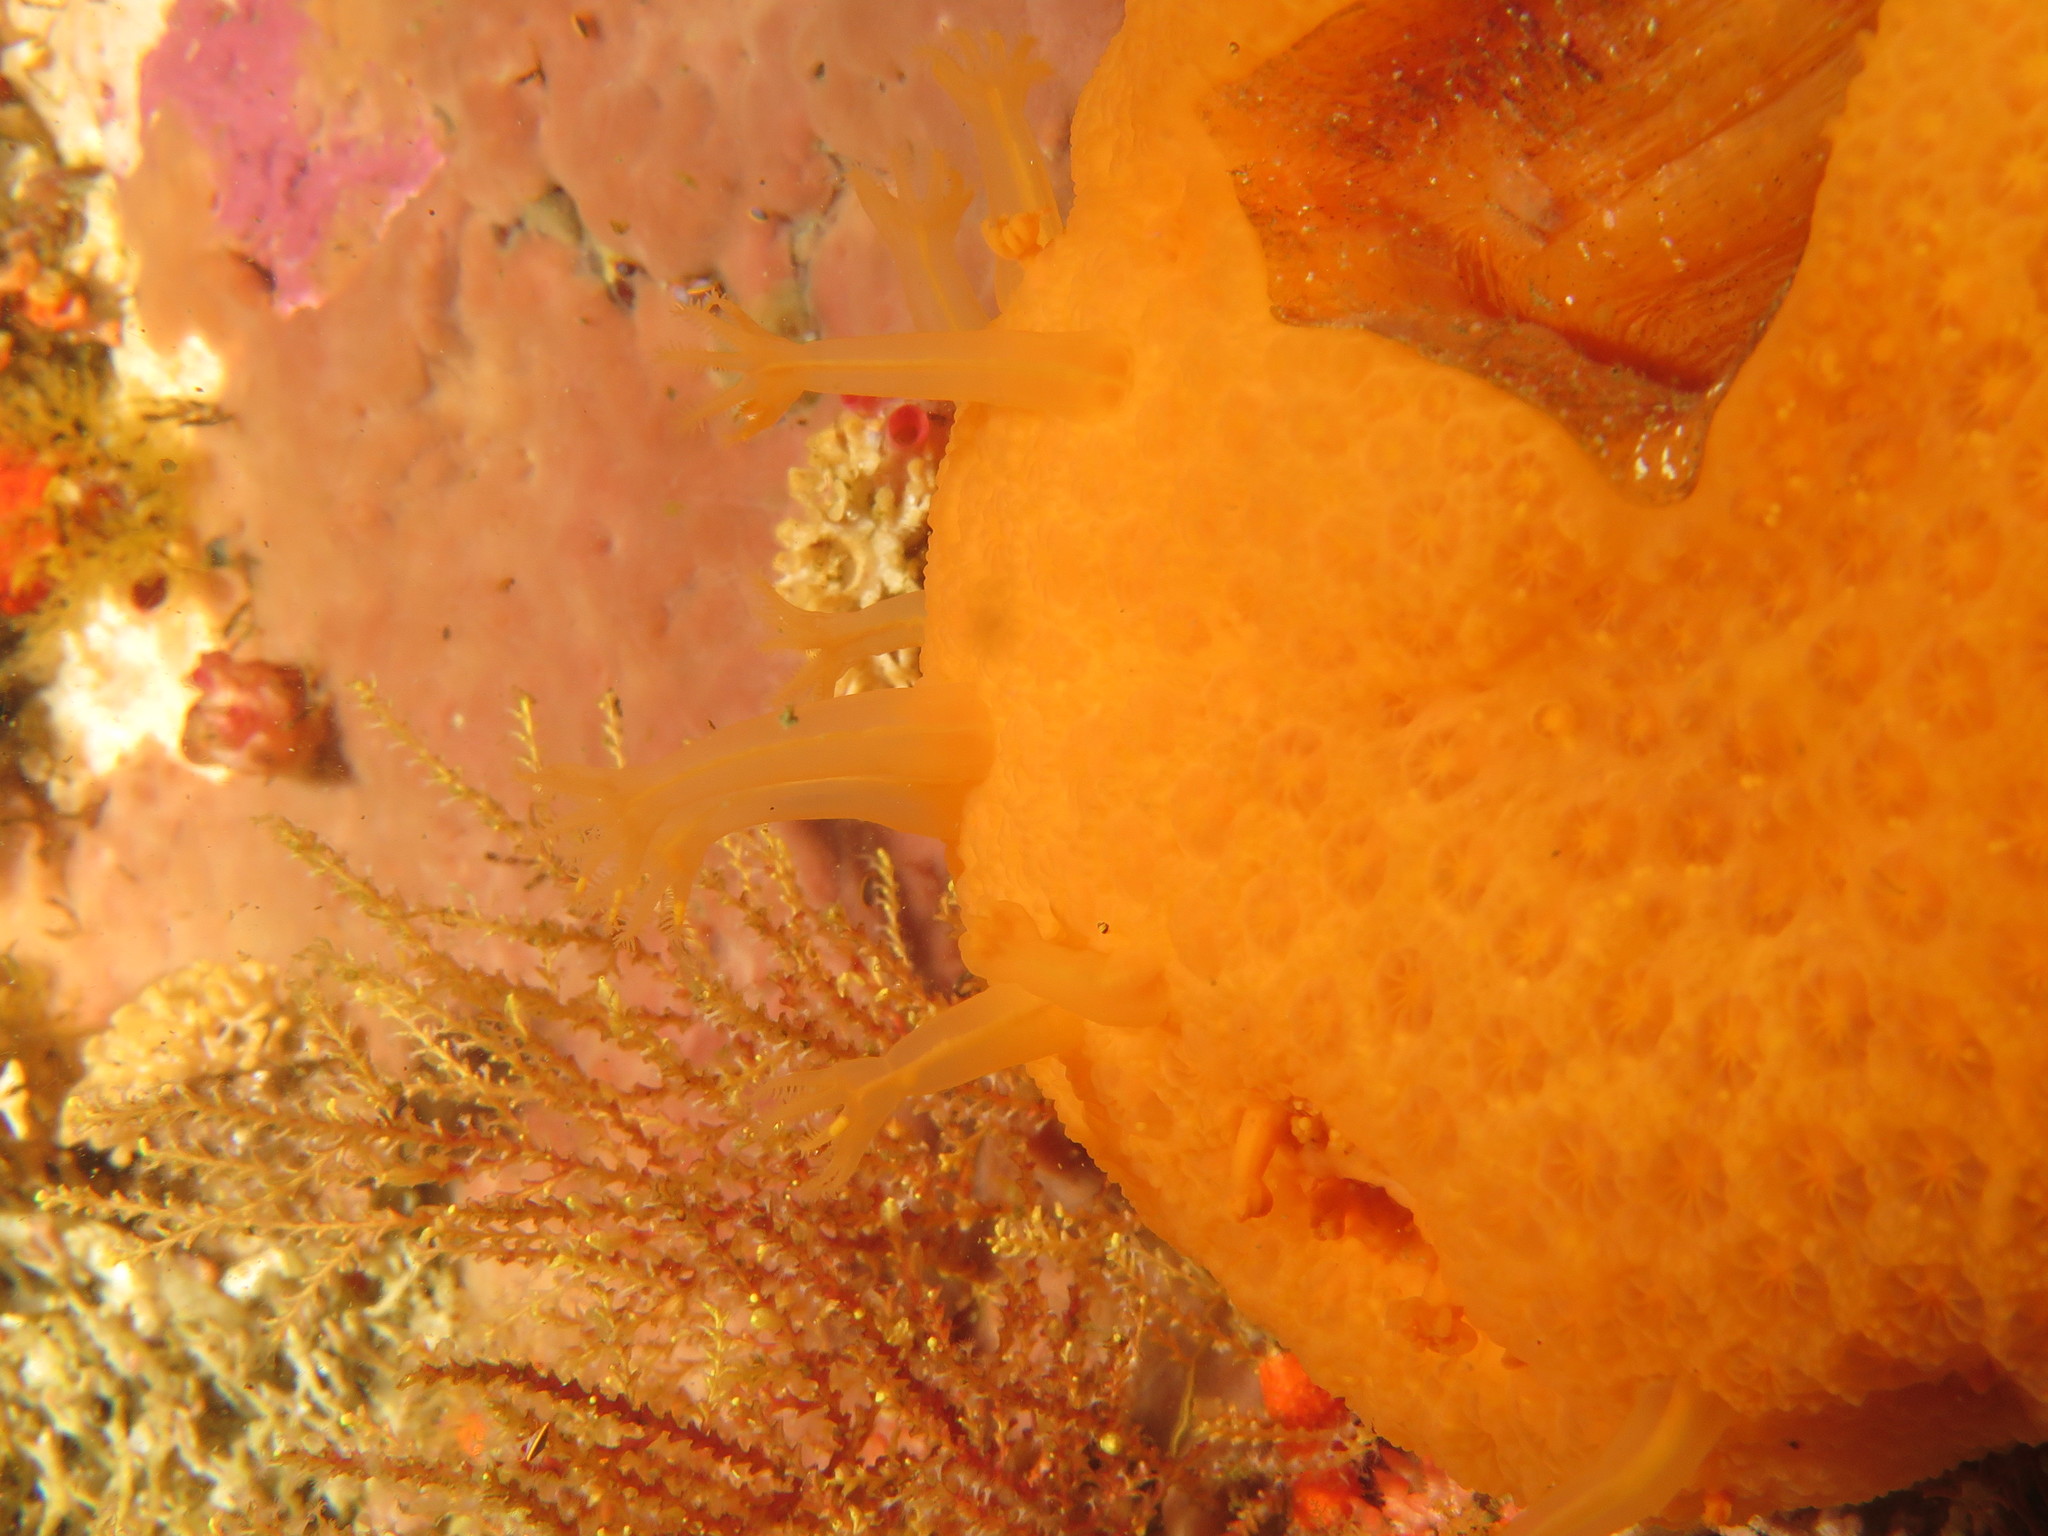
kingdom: Animalia
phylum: Cnidaria
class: Anthozoa
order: Malacalcyonacea
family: Malacacanthidae
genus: Malacacanthus
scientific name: Malacacanthus capensis
